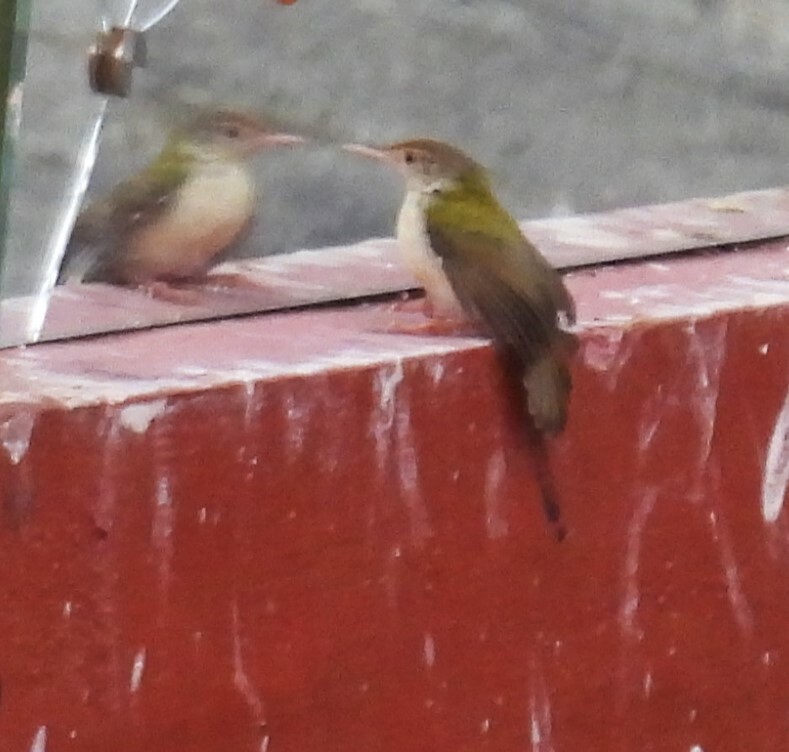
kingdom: Animalia
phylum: Chordata
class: Aves
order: Passeriformes
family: Cisticolidae
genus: Orthotomus
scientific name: Orthotomus sutorius
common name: Common tailorbird
